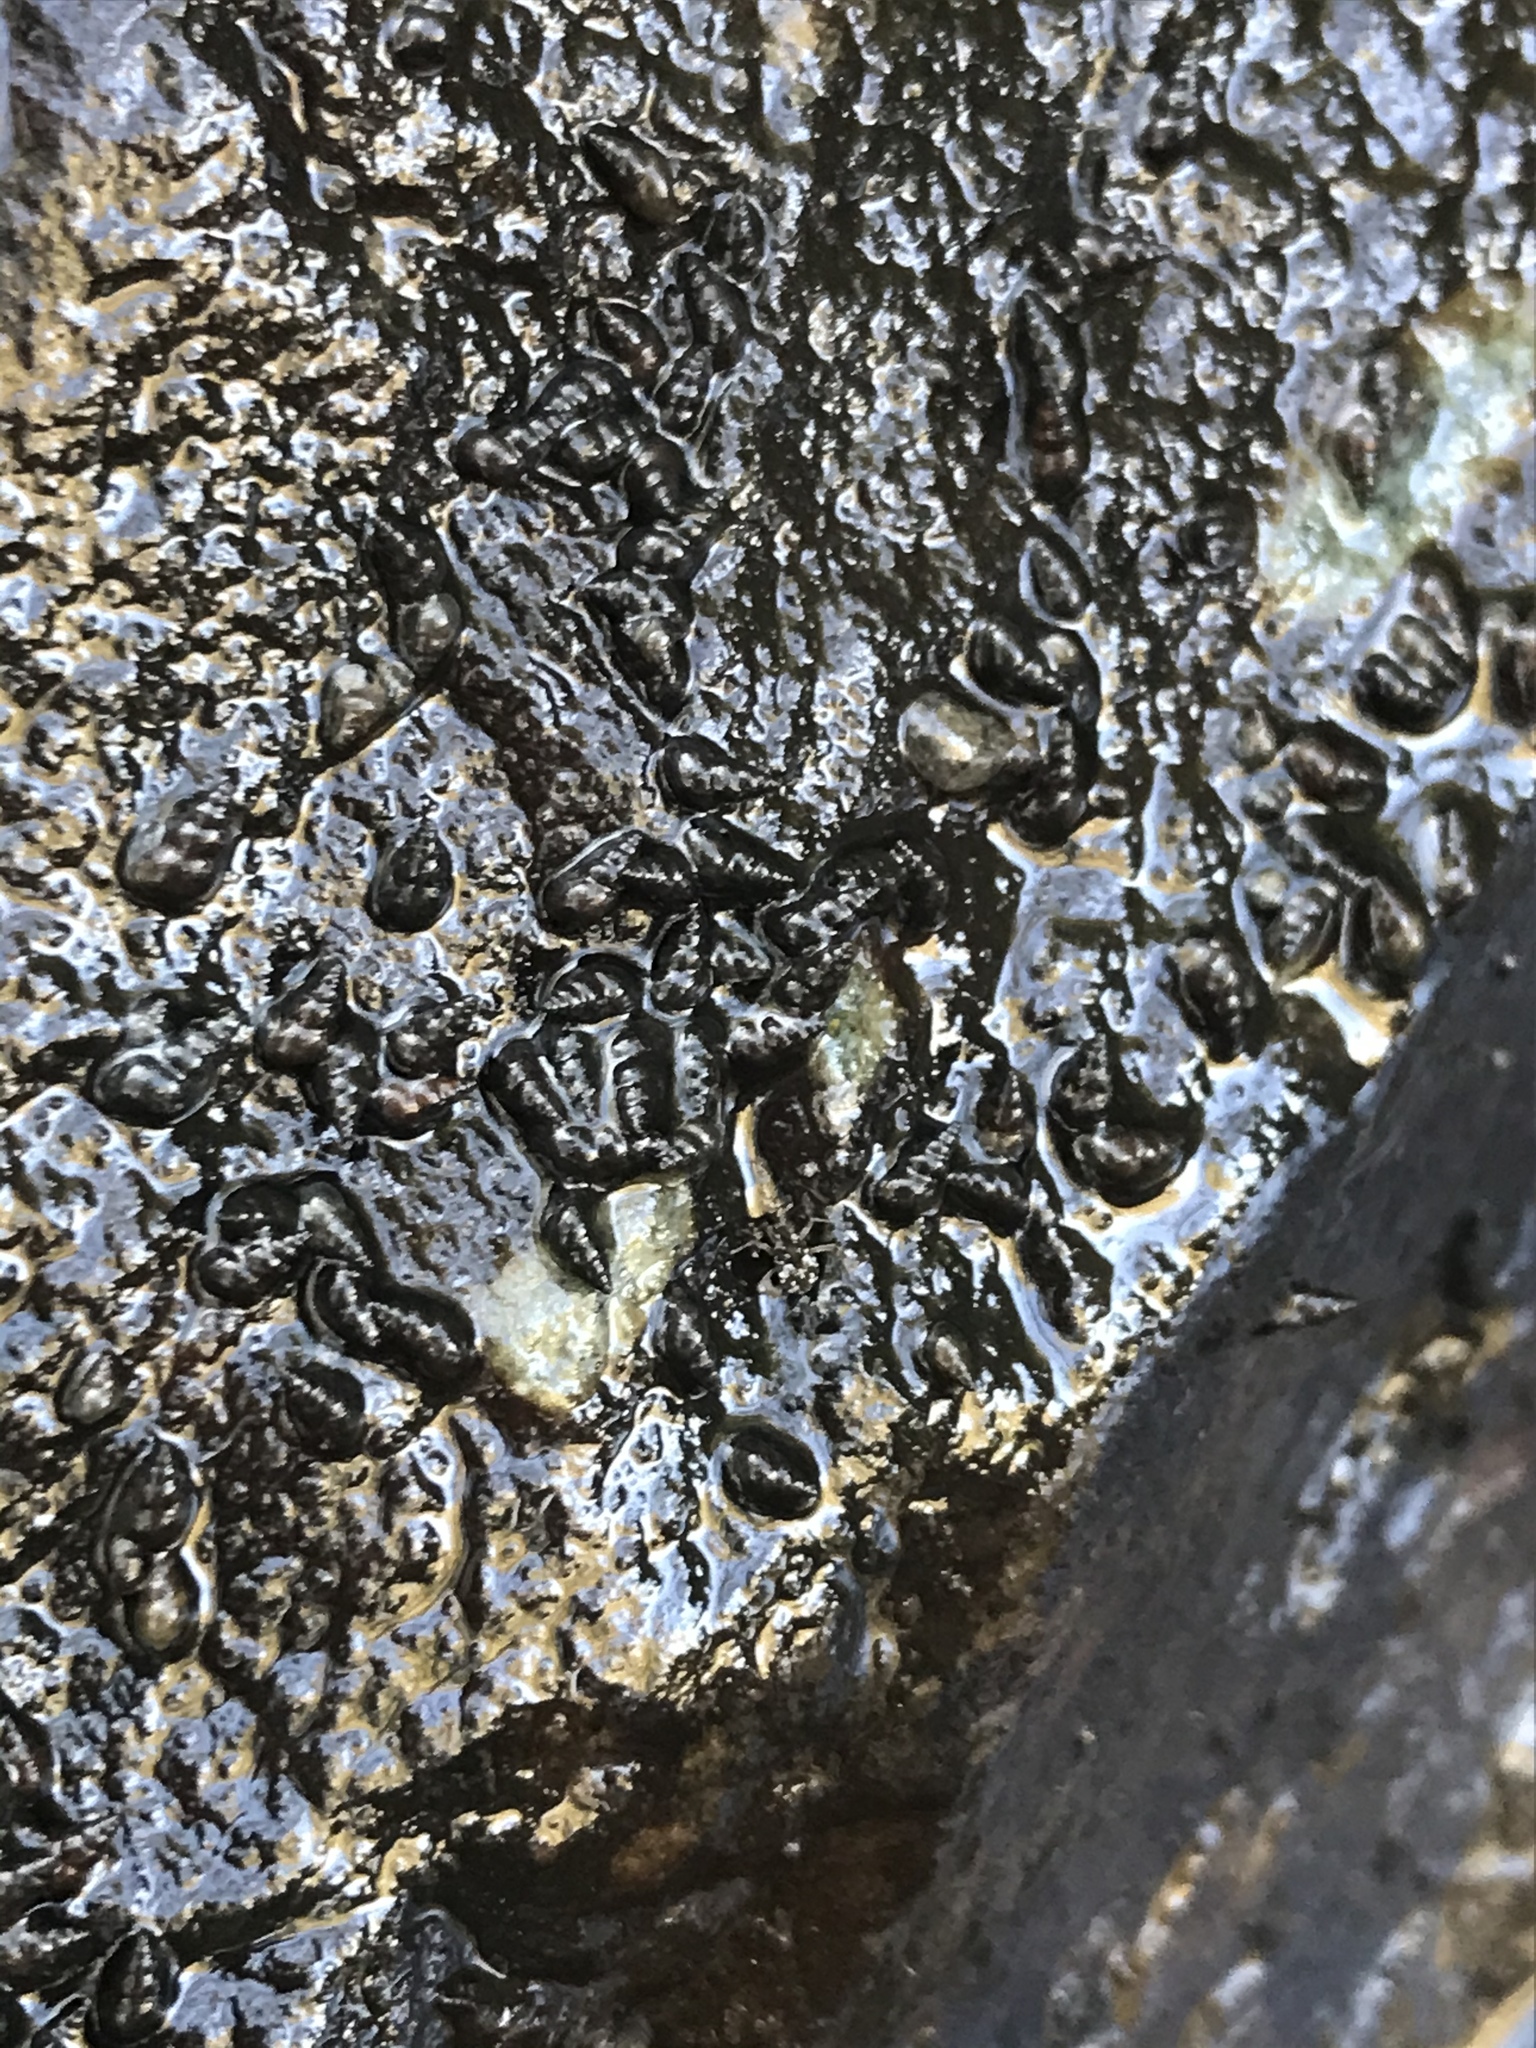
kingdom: Animalia
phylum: Mollusca
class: Gastropoda
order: Littorinimorpha
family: Tateidae
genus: Potamopyrgus
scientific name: Potamopyrgus antipodarum
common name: Jenkins' spire snail
